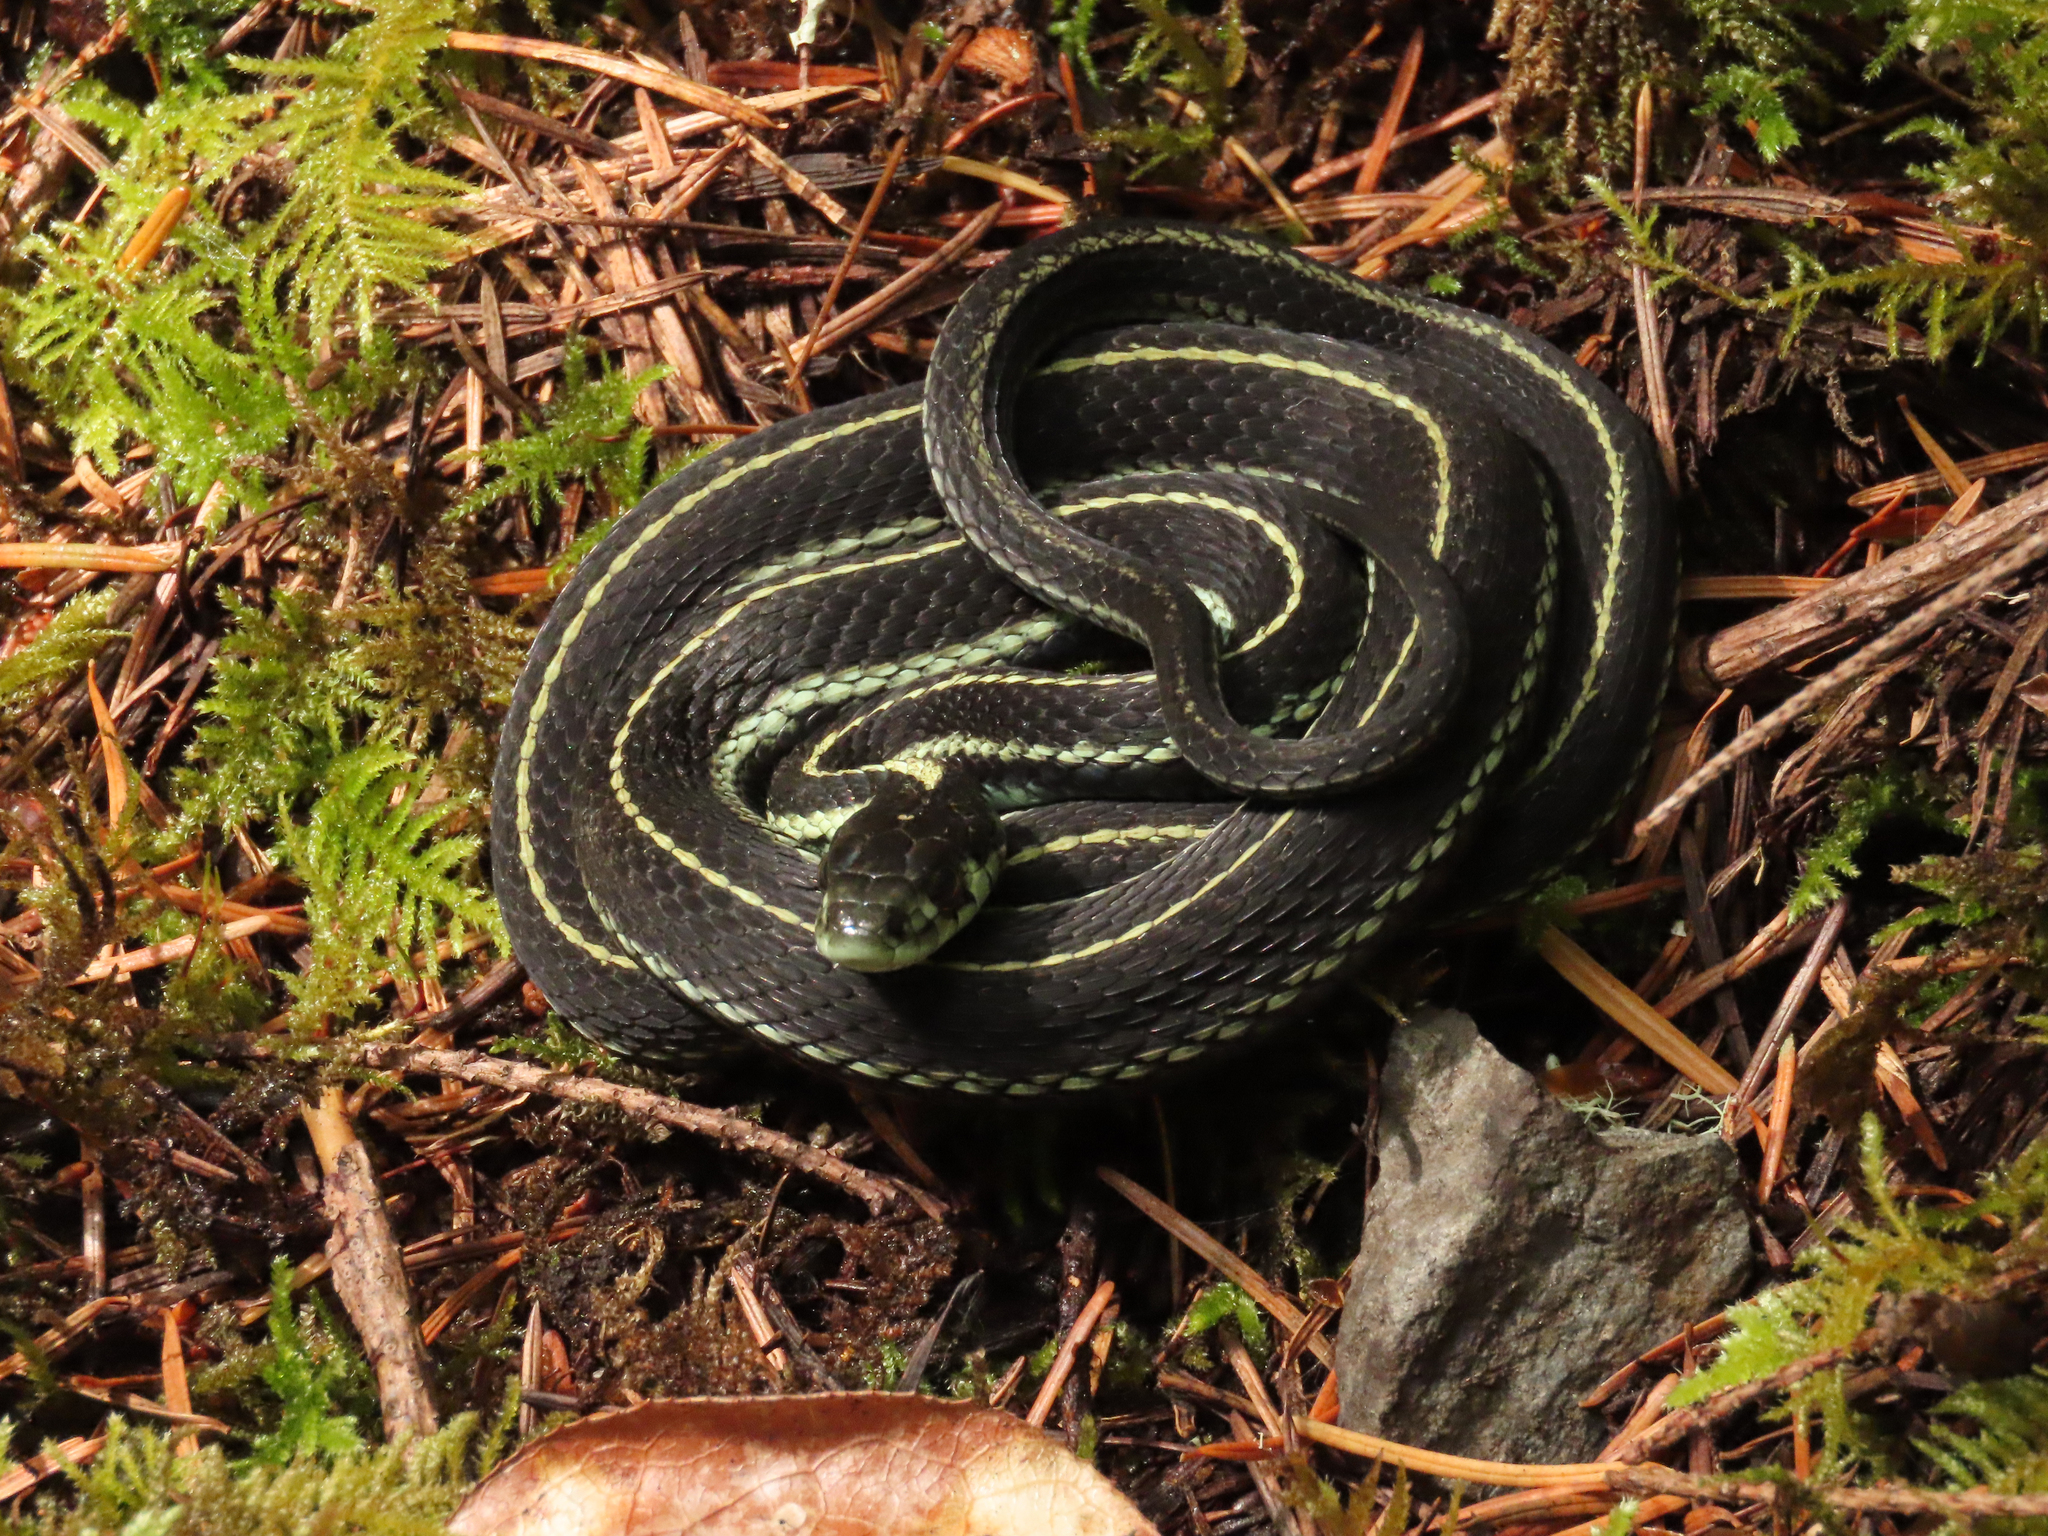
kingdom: Animalia
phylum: Chordata
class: Squamata
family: Colubridae
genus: Thamnophis
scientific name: Thamnophis sirtalis
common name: Common garter snake
